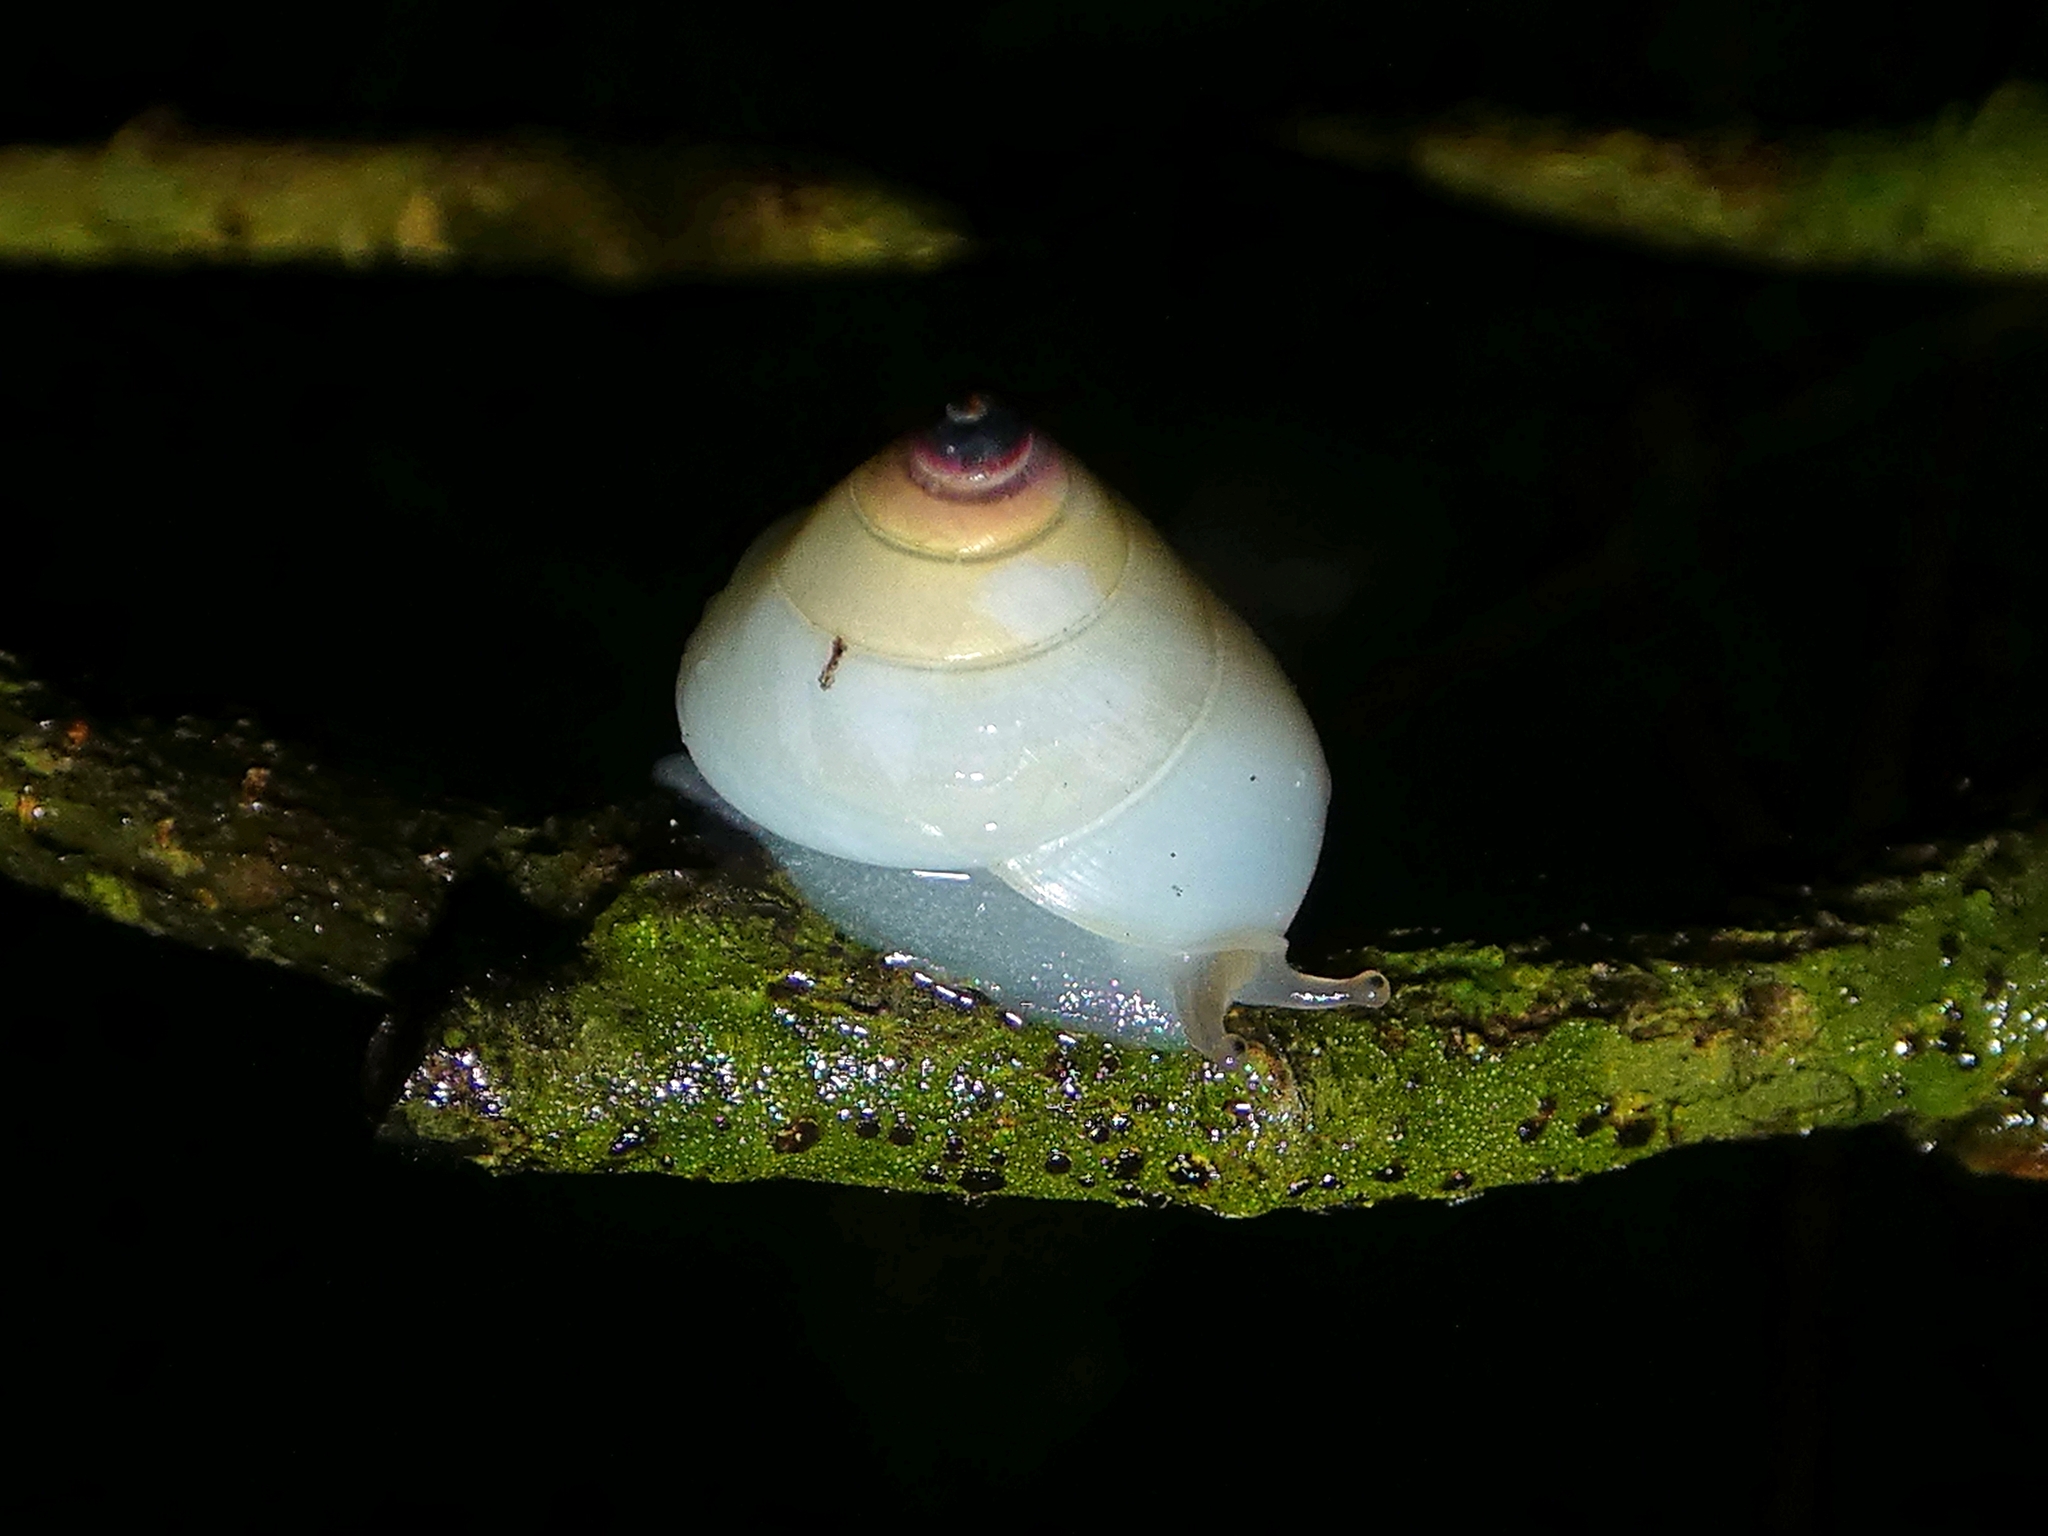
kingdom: Animalia
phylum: Mollusca
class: Gastropoda
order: Stylommatophora
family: Camaenidae
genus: Noctepuna
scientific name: Noctepuna cerea
